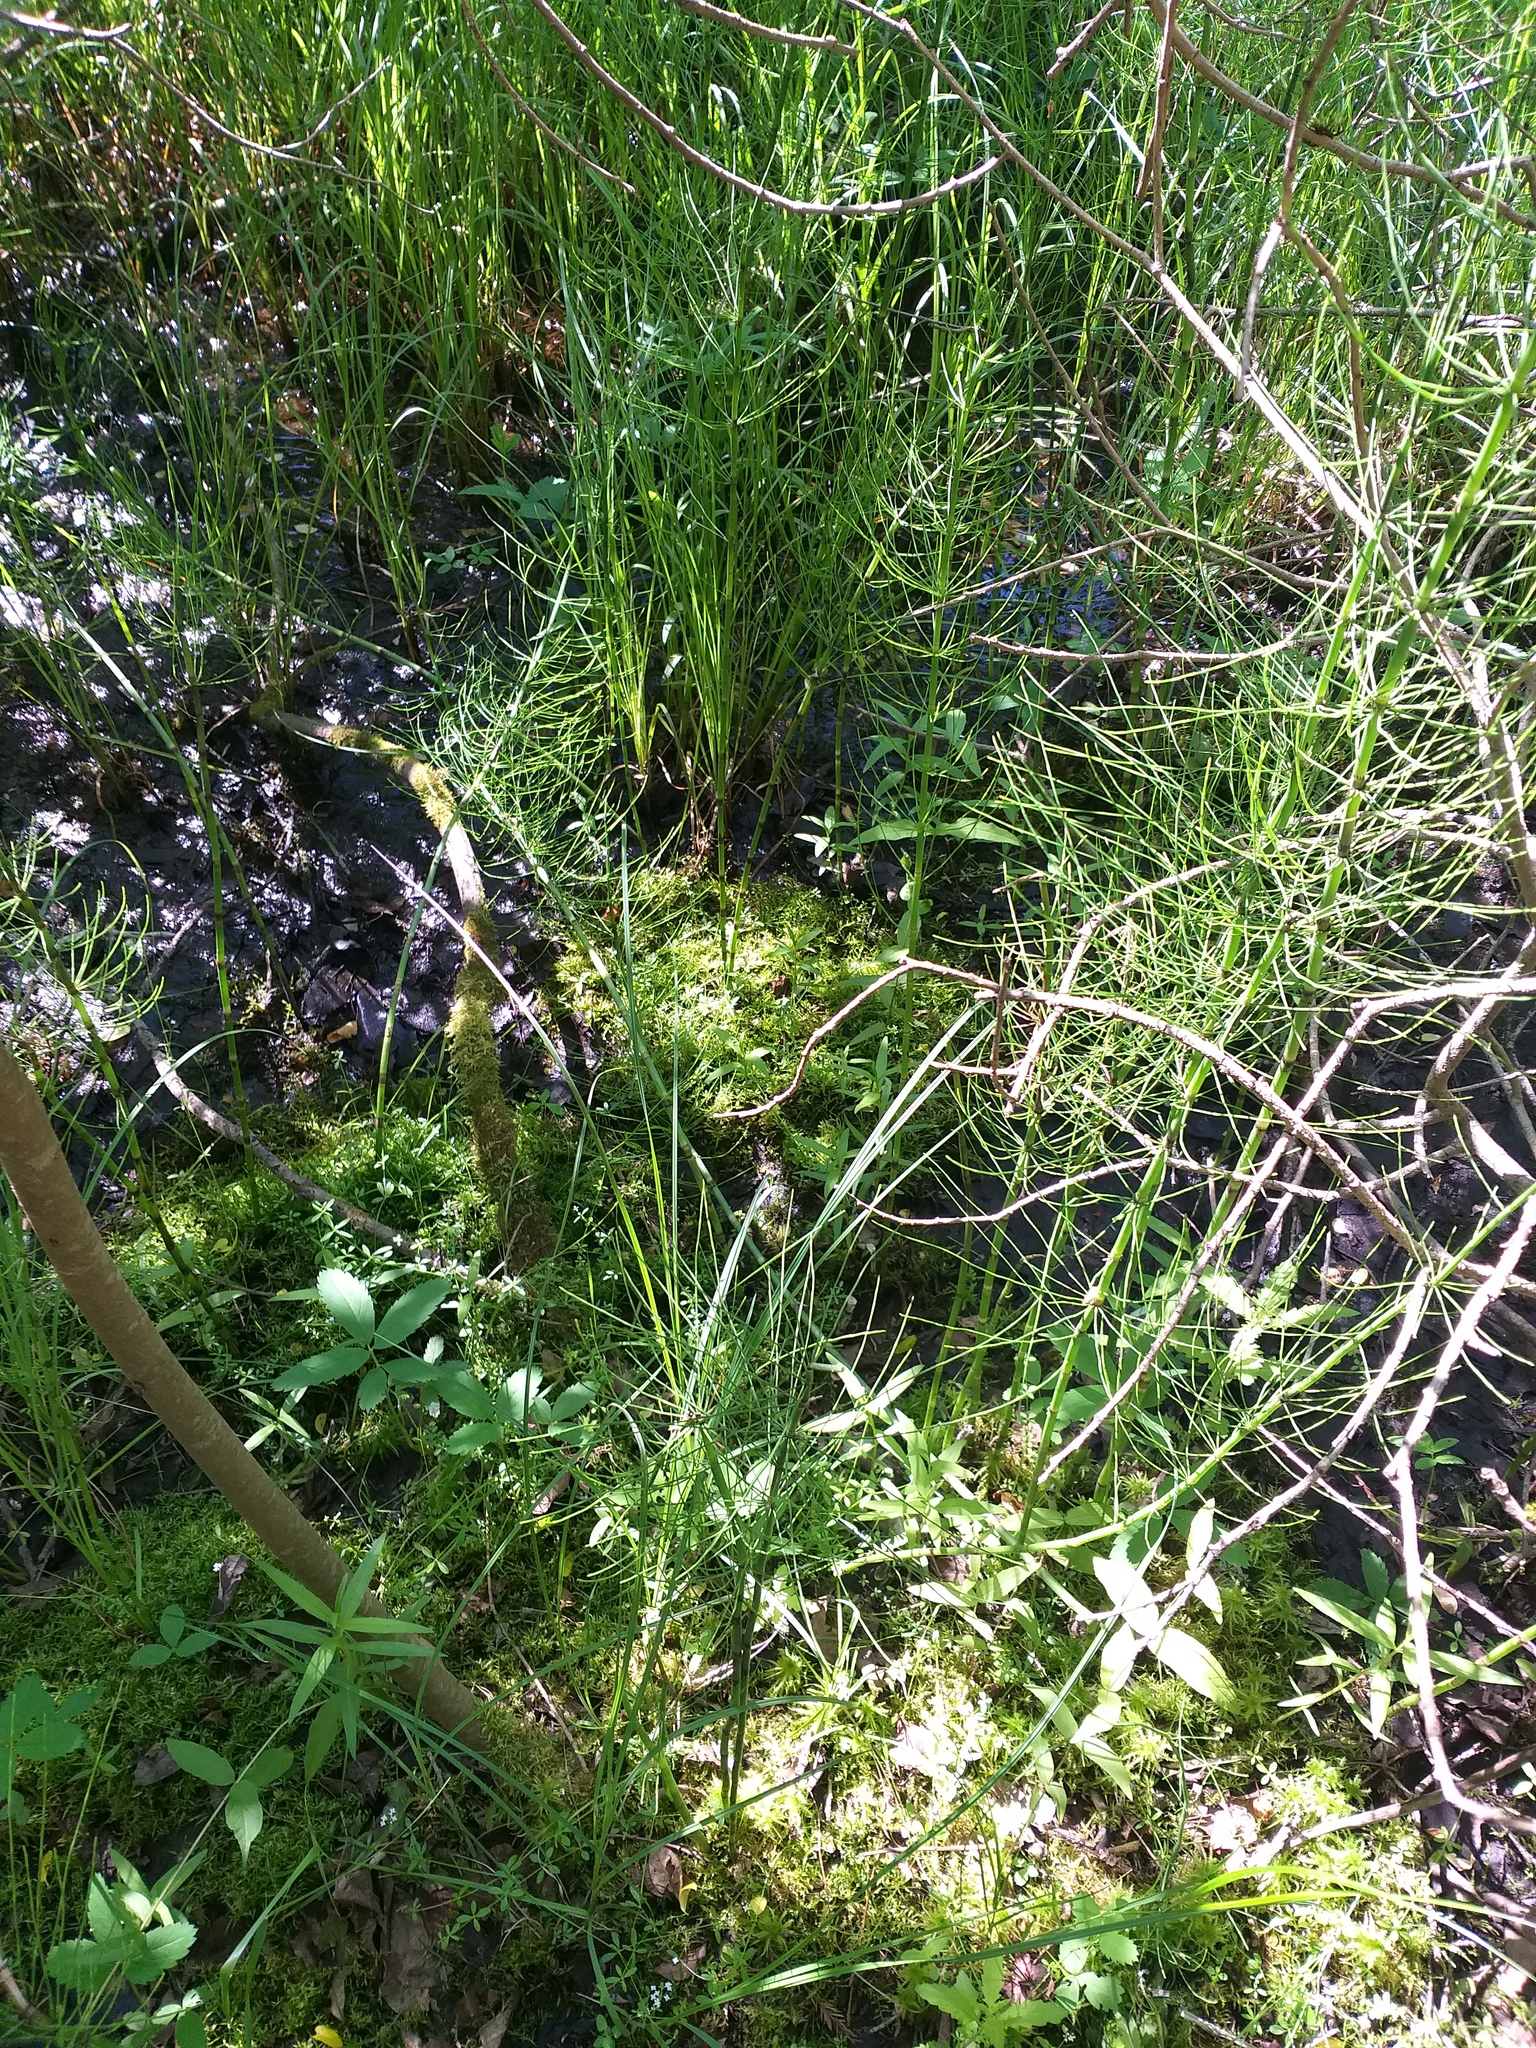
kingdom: Plantae
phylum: Tracheophyta
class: Polypodiopsida
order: Equisetales
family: Equisetaceae
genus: Equisetum
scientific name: Equisetum fluviatile
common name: Water horsetail
